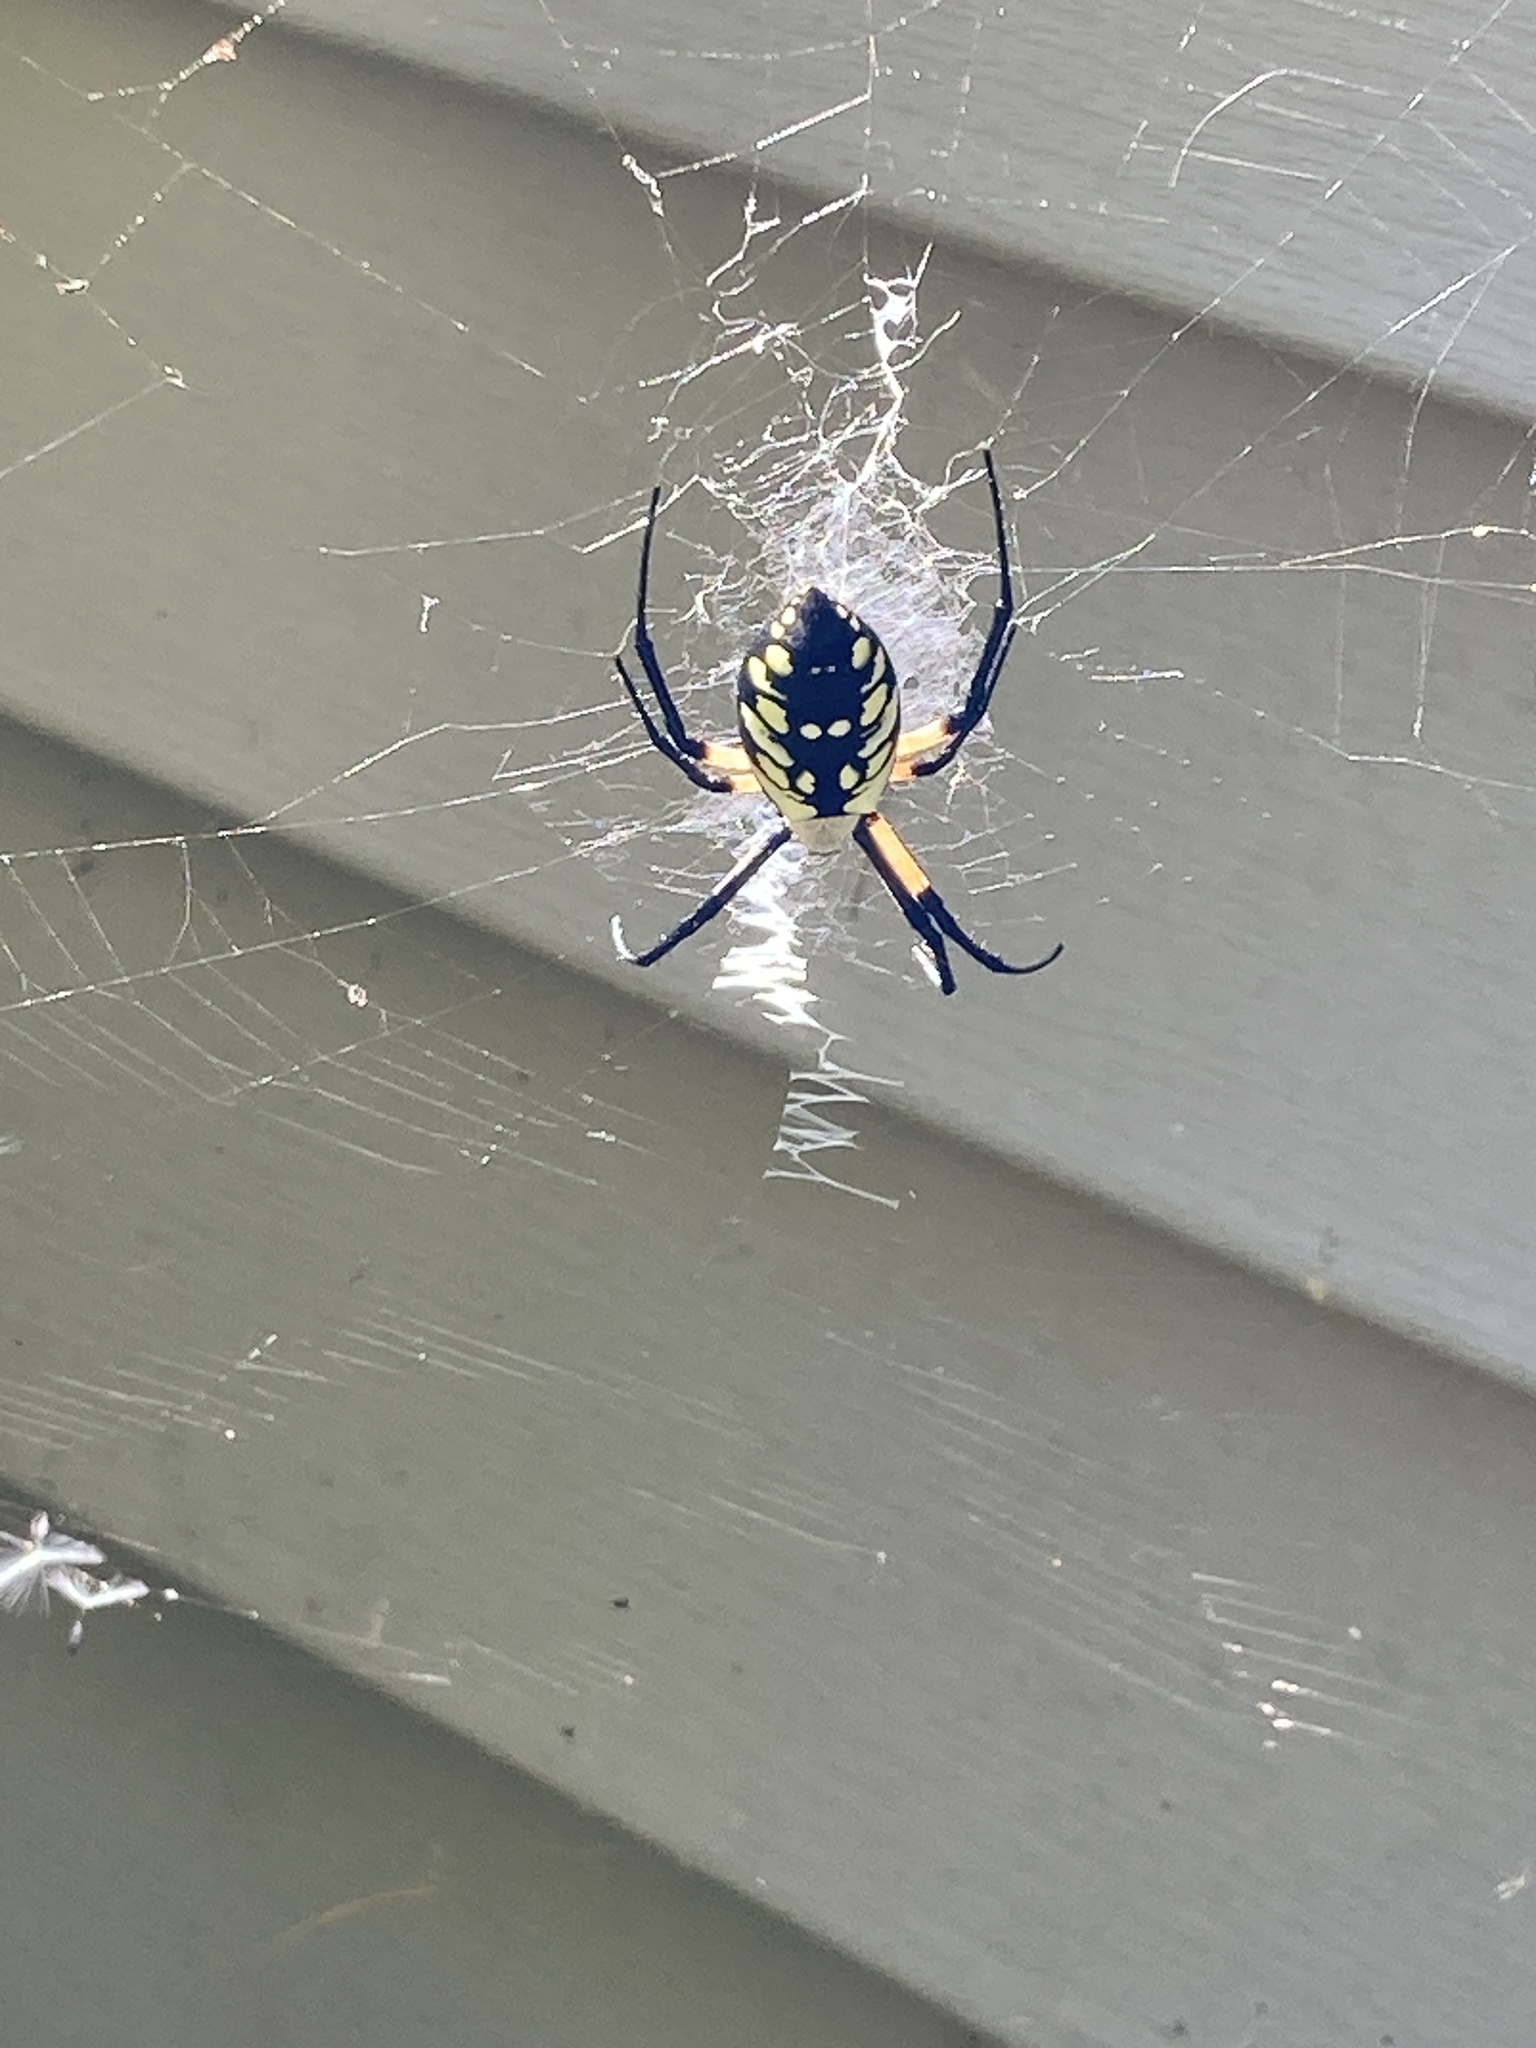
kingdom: Animalia
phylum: Arthropoda
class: Arachnida
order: Araneae
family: Araneidae
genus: Argiope
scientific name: Argiope aurantia
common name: Orb weavers
